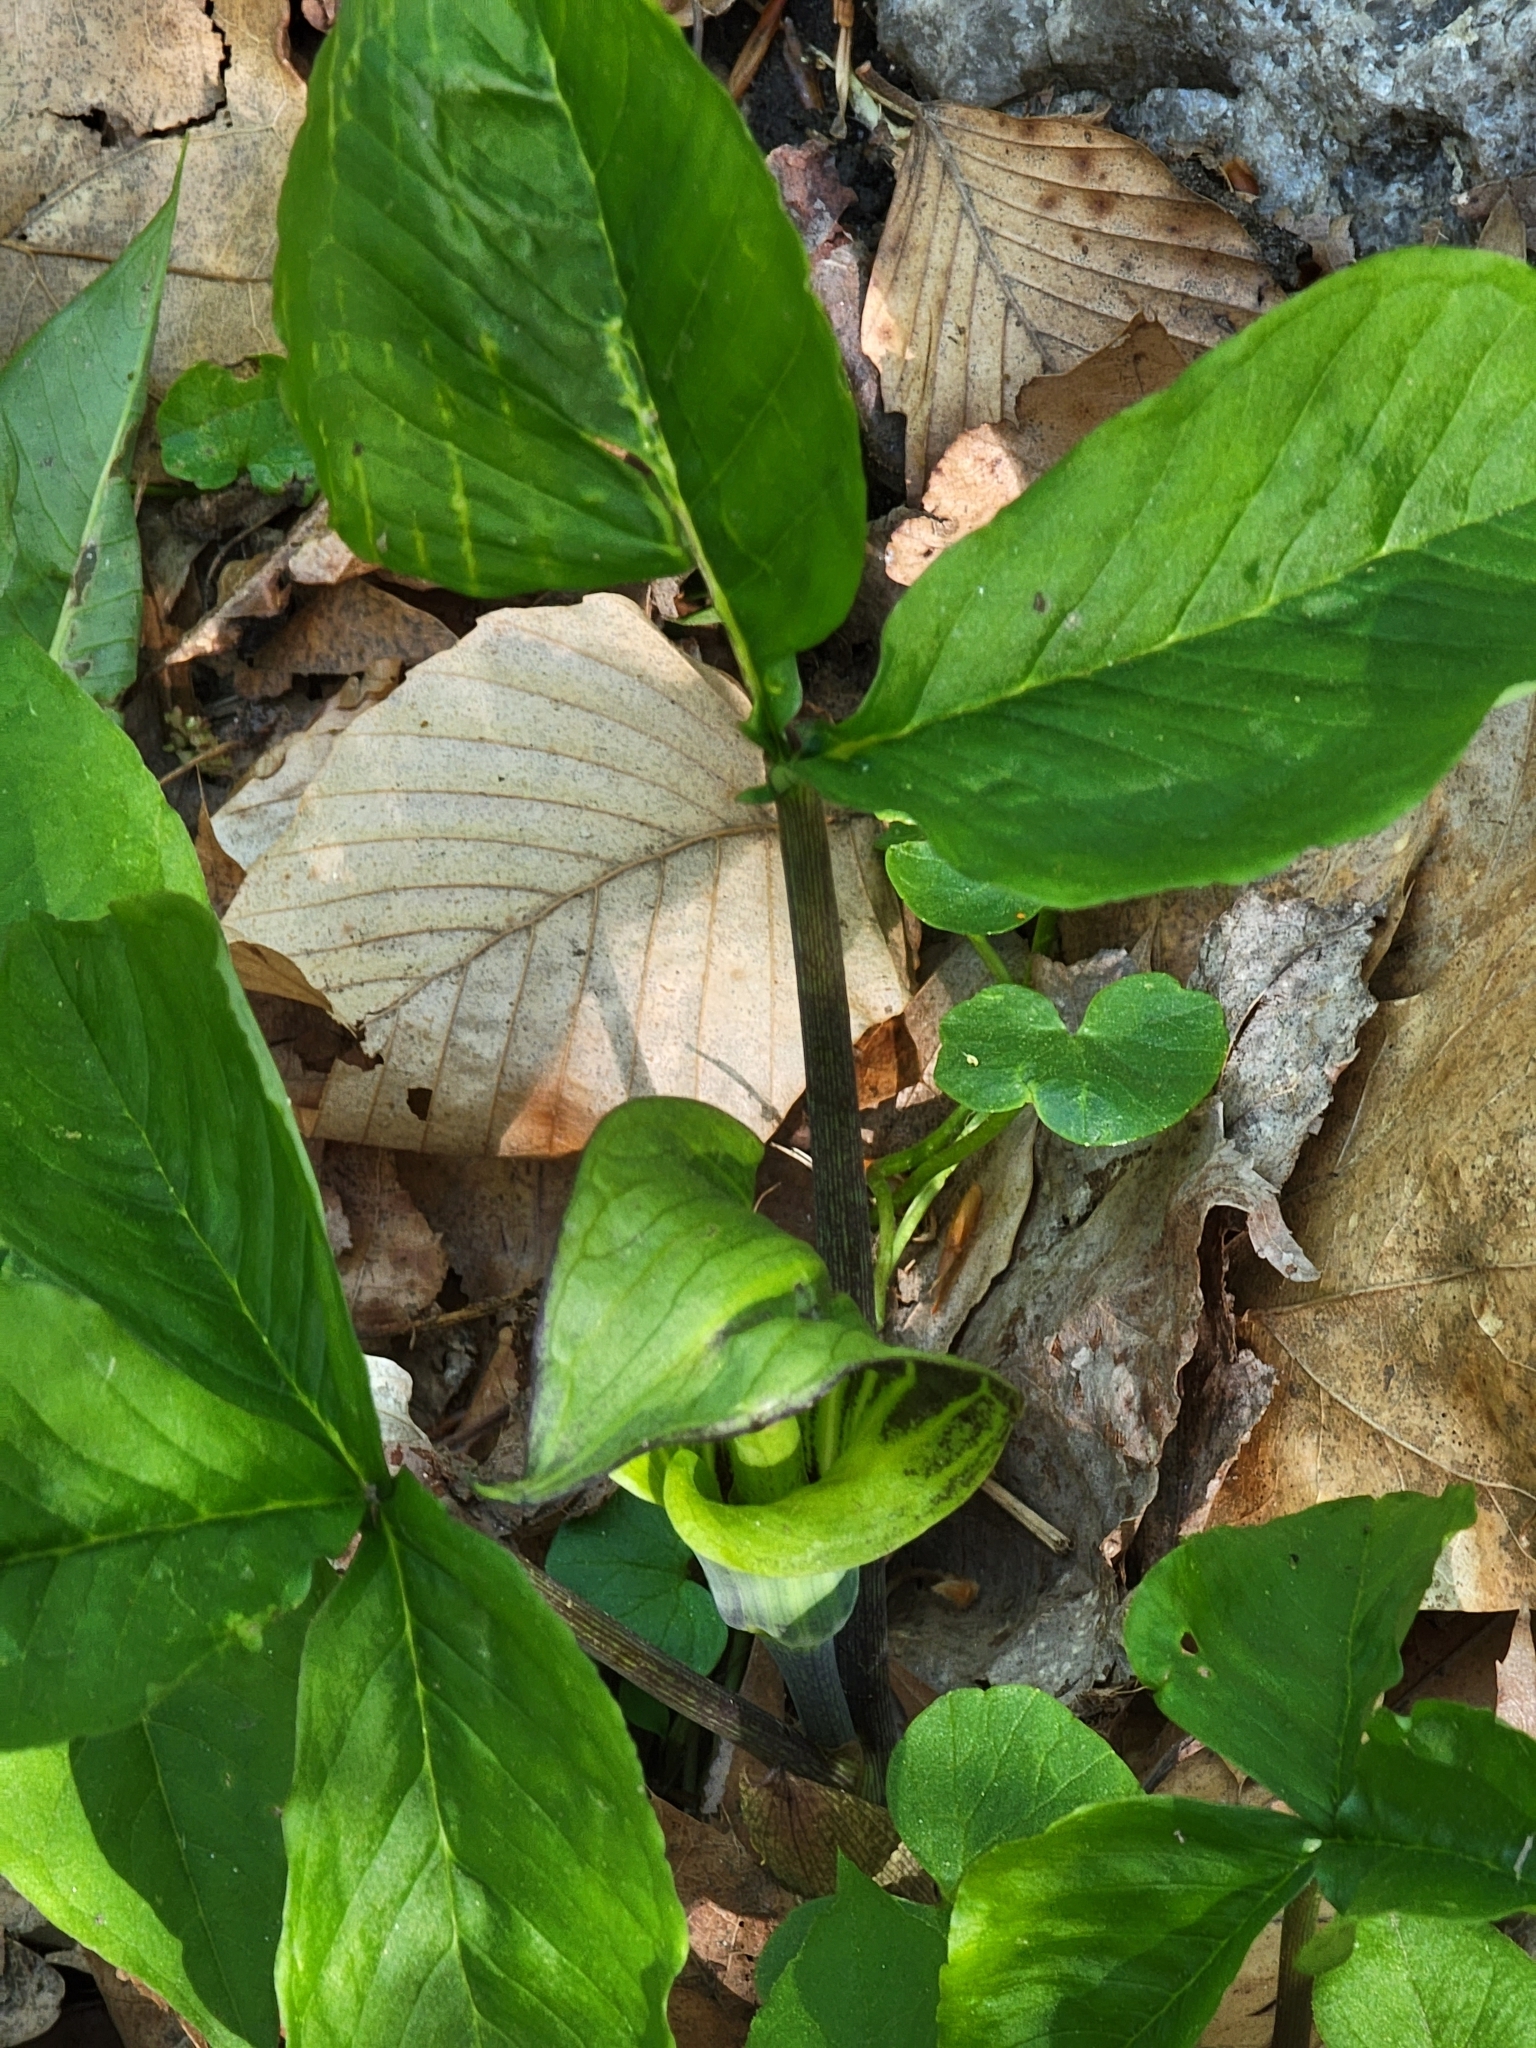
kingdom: Plantae
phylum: Tracheophyta
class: Liliopsida
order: Alismatales
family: Araceae
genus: Arisaema
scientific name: Arisaema triphyllum
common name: Jack-in-the-pulpit
